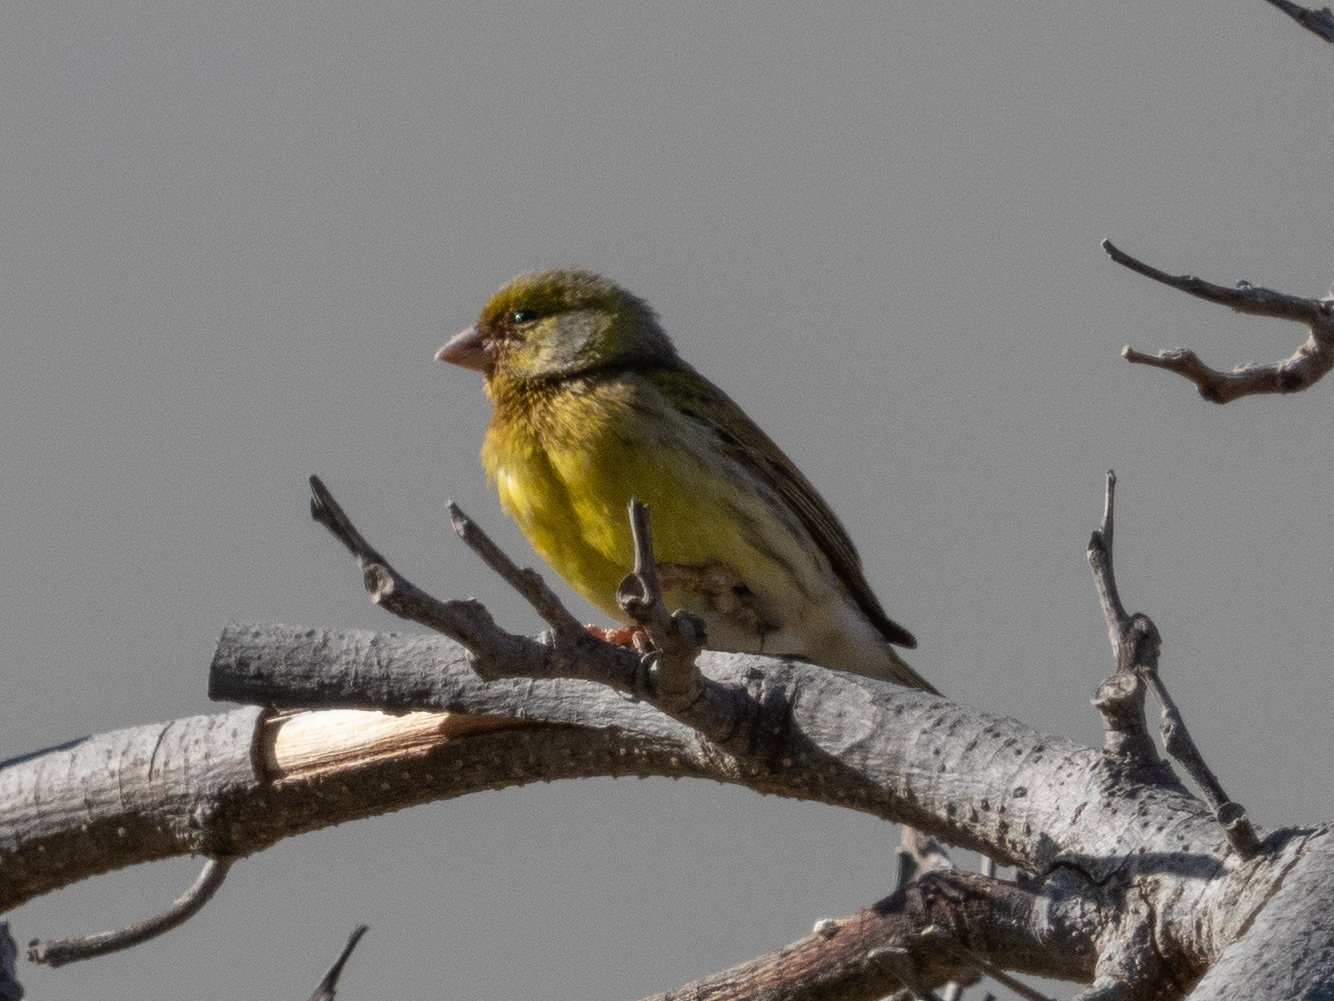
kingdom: Animalia
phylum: Chordata
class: Aves
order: Passeriformes
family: Fringillidae
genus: Serinus
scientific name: Serinus canaria
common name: Atlantic canary
